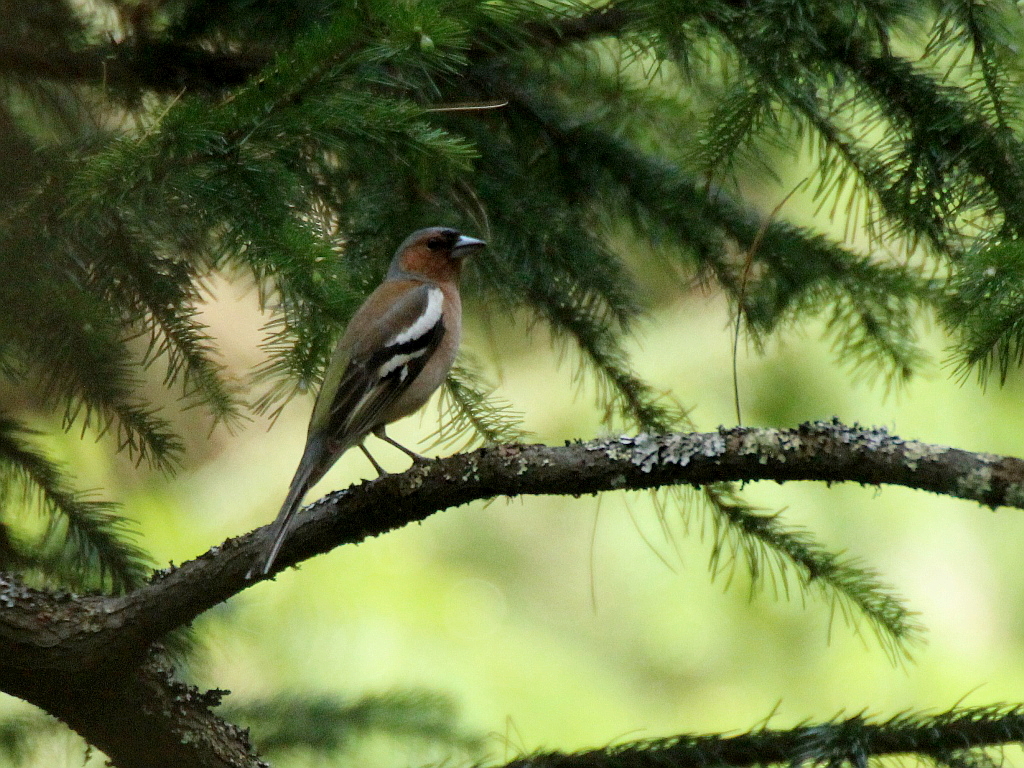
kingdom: Animalia
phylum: Chordata
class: Aves
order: Passeriformes
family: Fringillidae
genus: Fringilla
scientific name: Fringilla coelebs
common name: Common chaffinch
